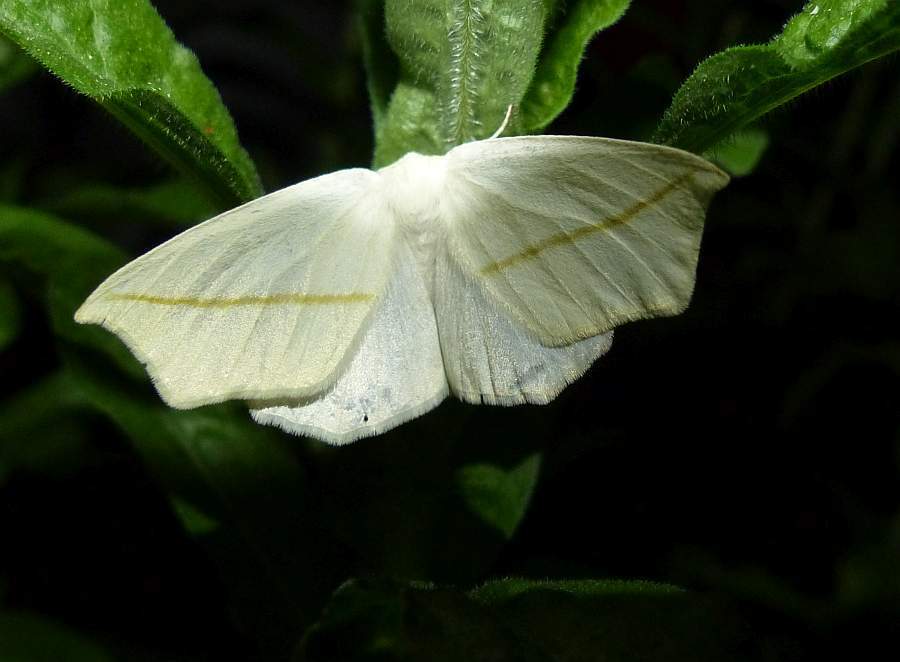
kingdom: Animalia
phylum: Arthropoda
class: Insecta
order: Lepidoptera
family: Geometridae
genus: Tetracis
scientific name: Tetracis cachexiata
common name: White slant-line
